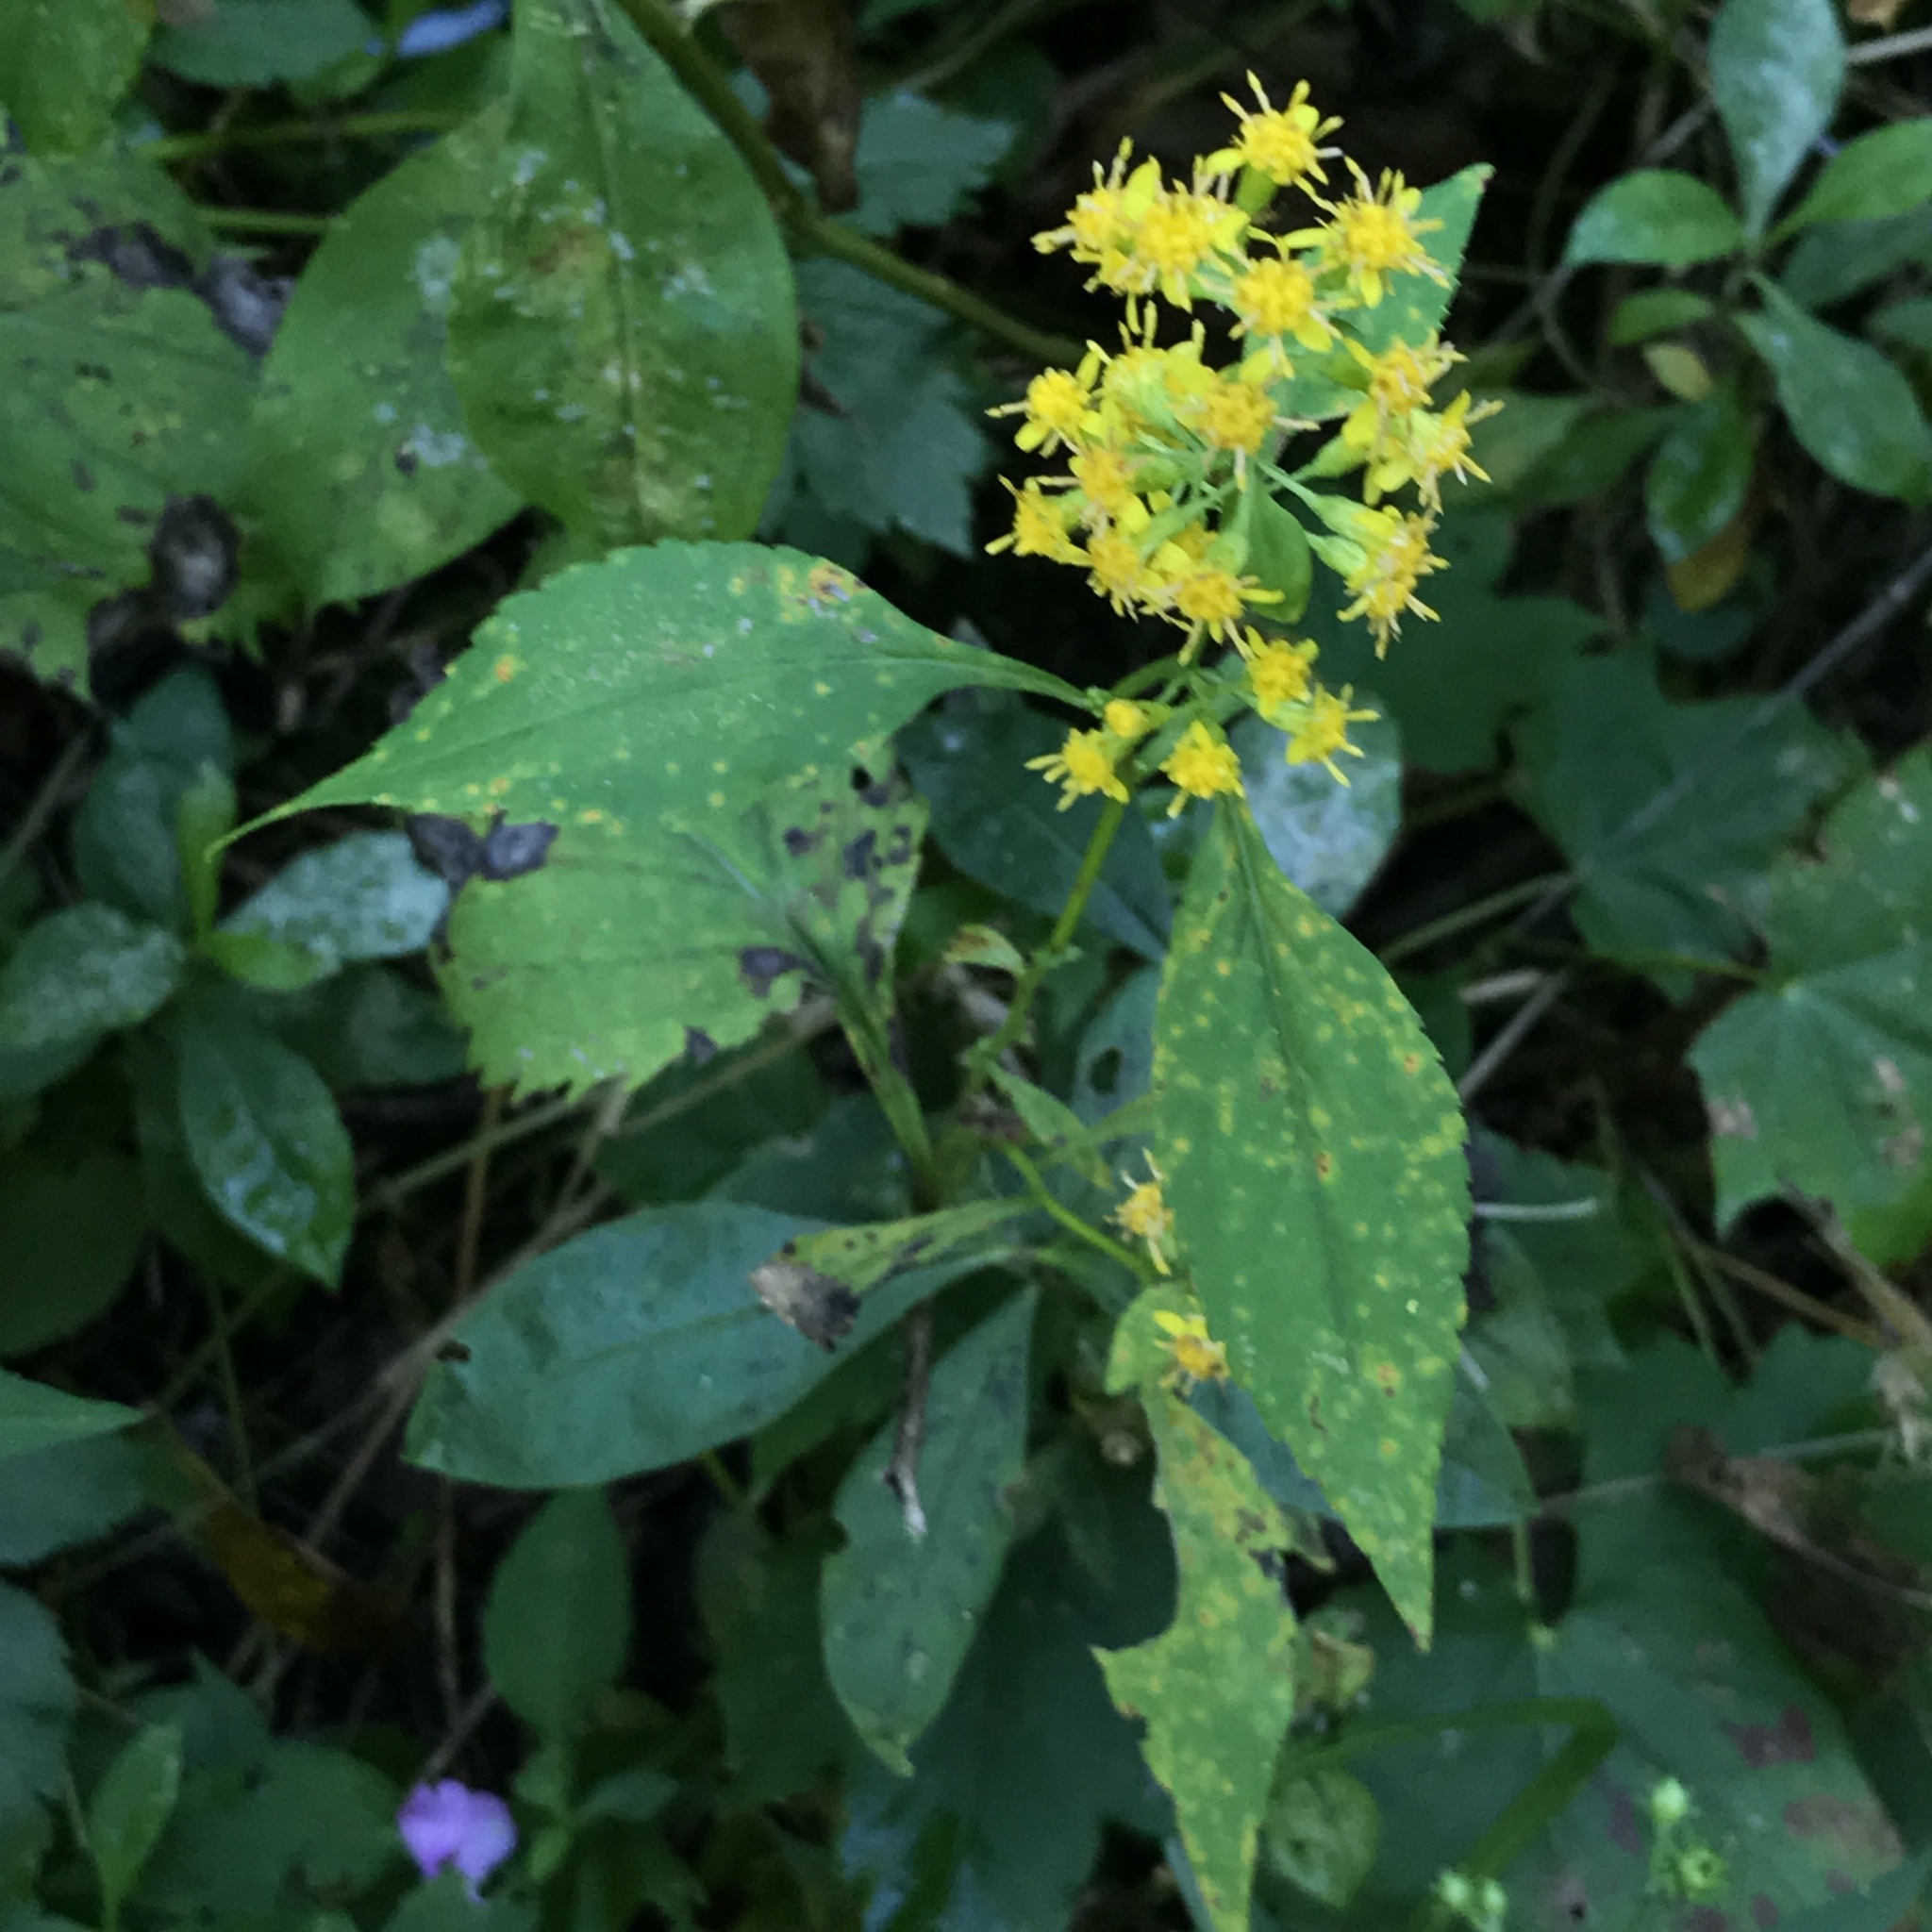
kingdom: Plantae
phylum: Tracheophyta
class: Magnoliopsida
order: Asterales
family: Asteraceae
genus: Solidago
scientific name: Solidago flexicaulis
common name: Zig-zag goldenrod
